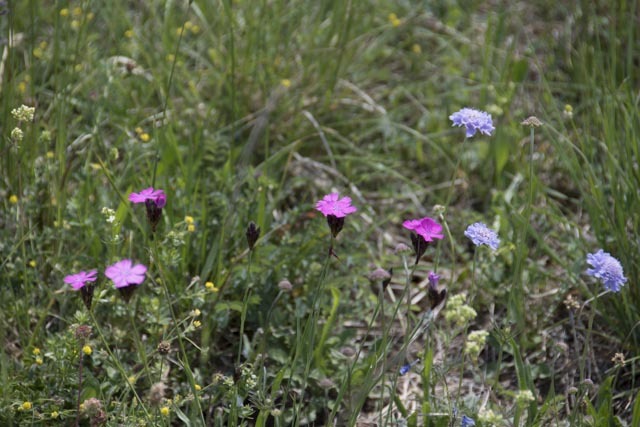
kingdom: Plantae
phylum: Tracheophyta
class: Magnoliopsida
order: Caryophyllales
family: Caryophyllaceae
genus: Dianthus
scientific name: Dianthus carthusianorum
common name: Carthusian pink
